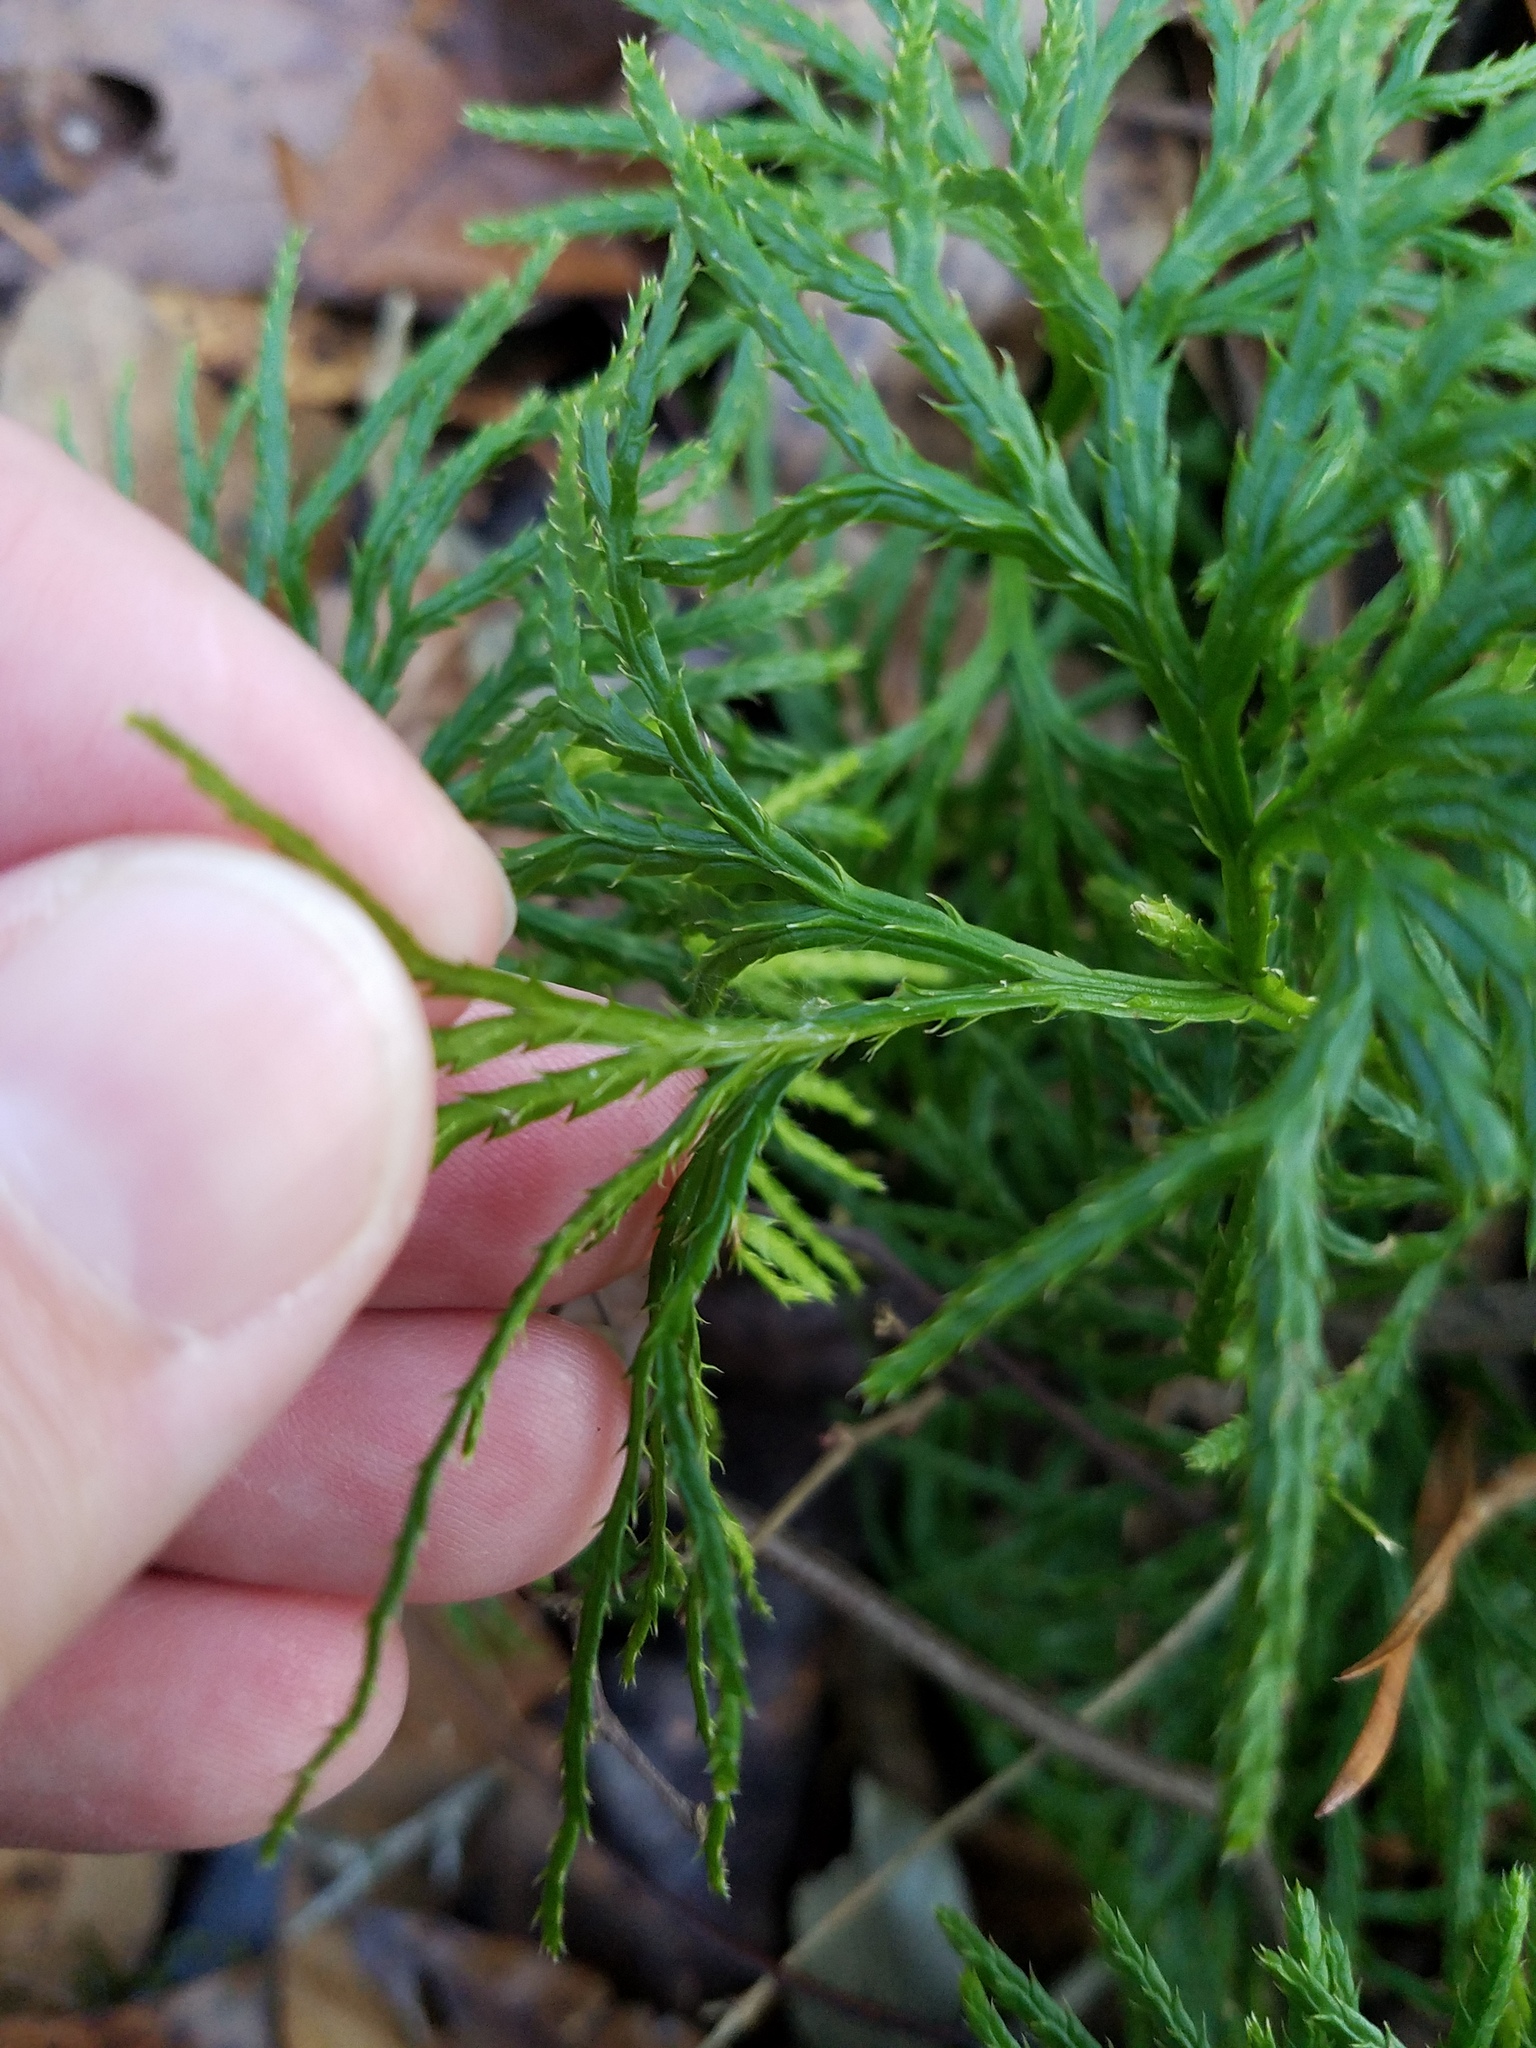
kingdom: Plantae
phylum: Tracheophyta
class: Lycopodiopsida
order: Lycopodiales
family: Lycopodiaceae
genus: Diphasiastrum
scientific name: Diphasiastrum digitatum
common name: Southern running-pine
